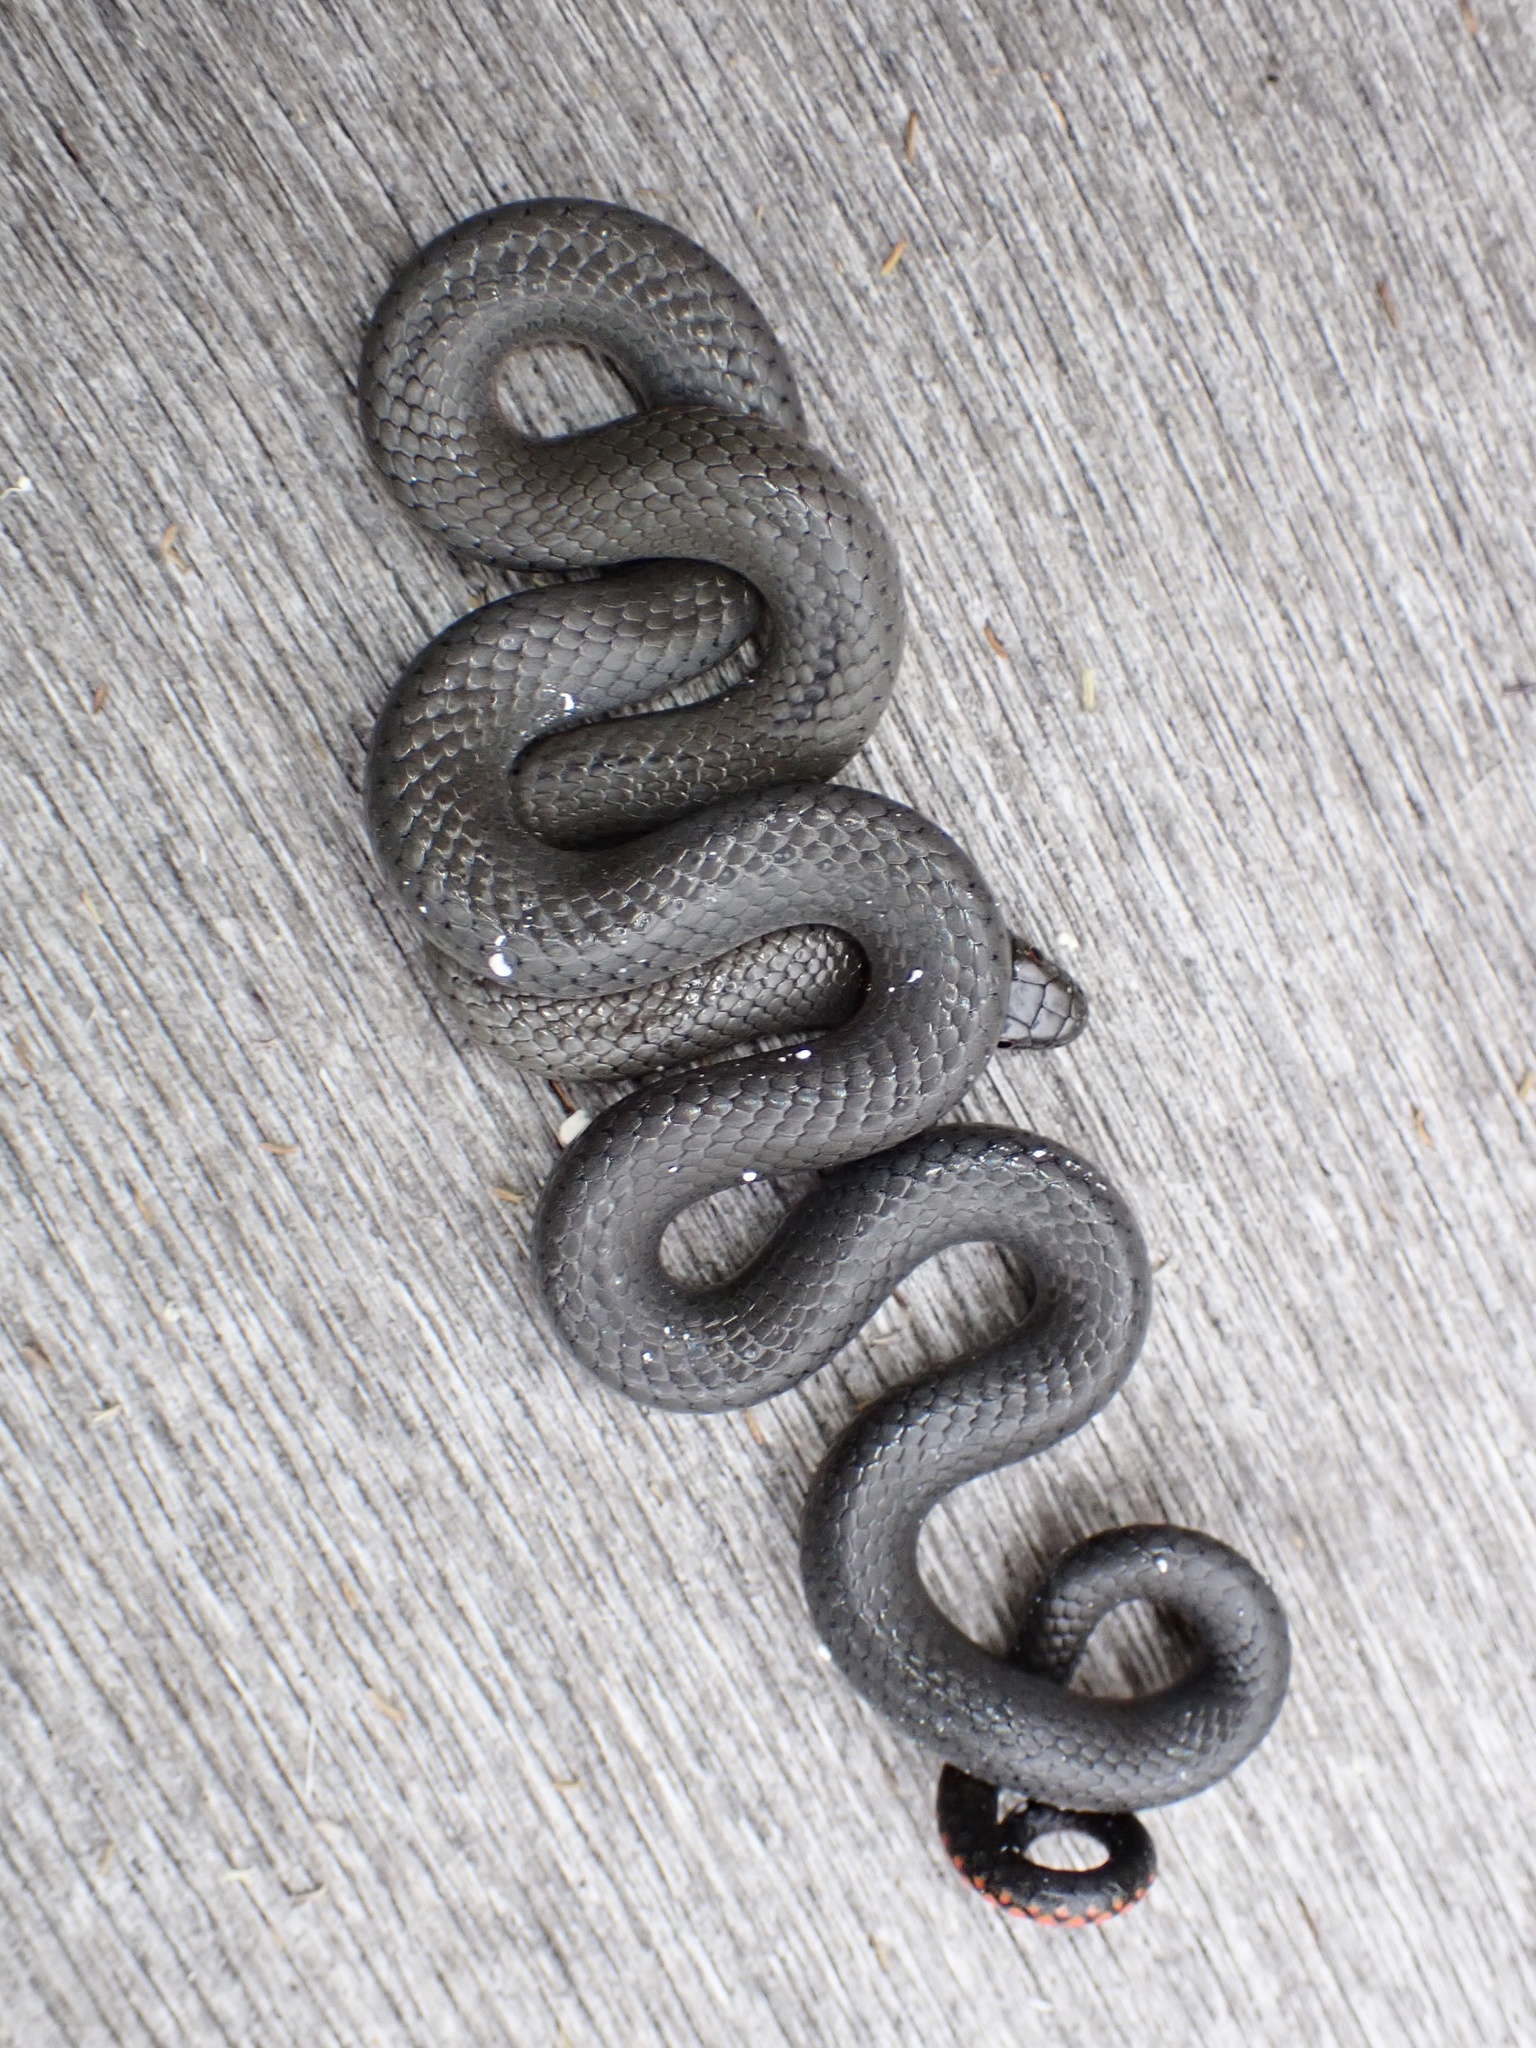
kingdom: Animalia
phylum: Chordata
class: Squamata
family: Colubridae
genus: Diadophis
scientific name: Diadophis punctatus
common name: Ringneck snake
